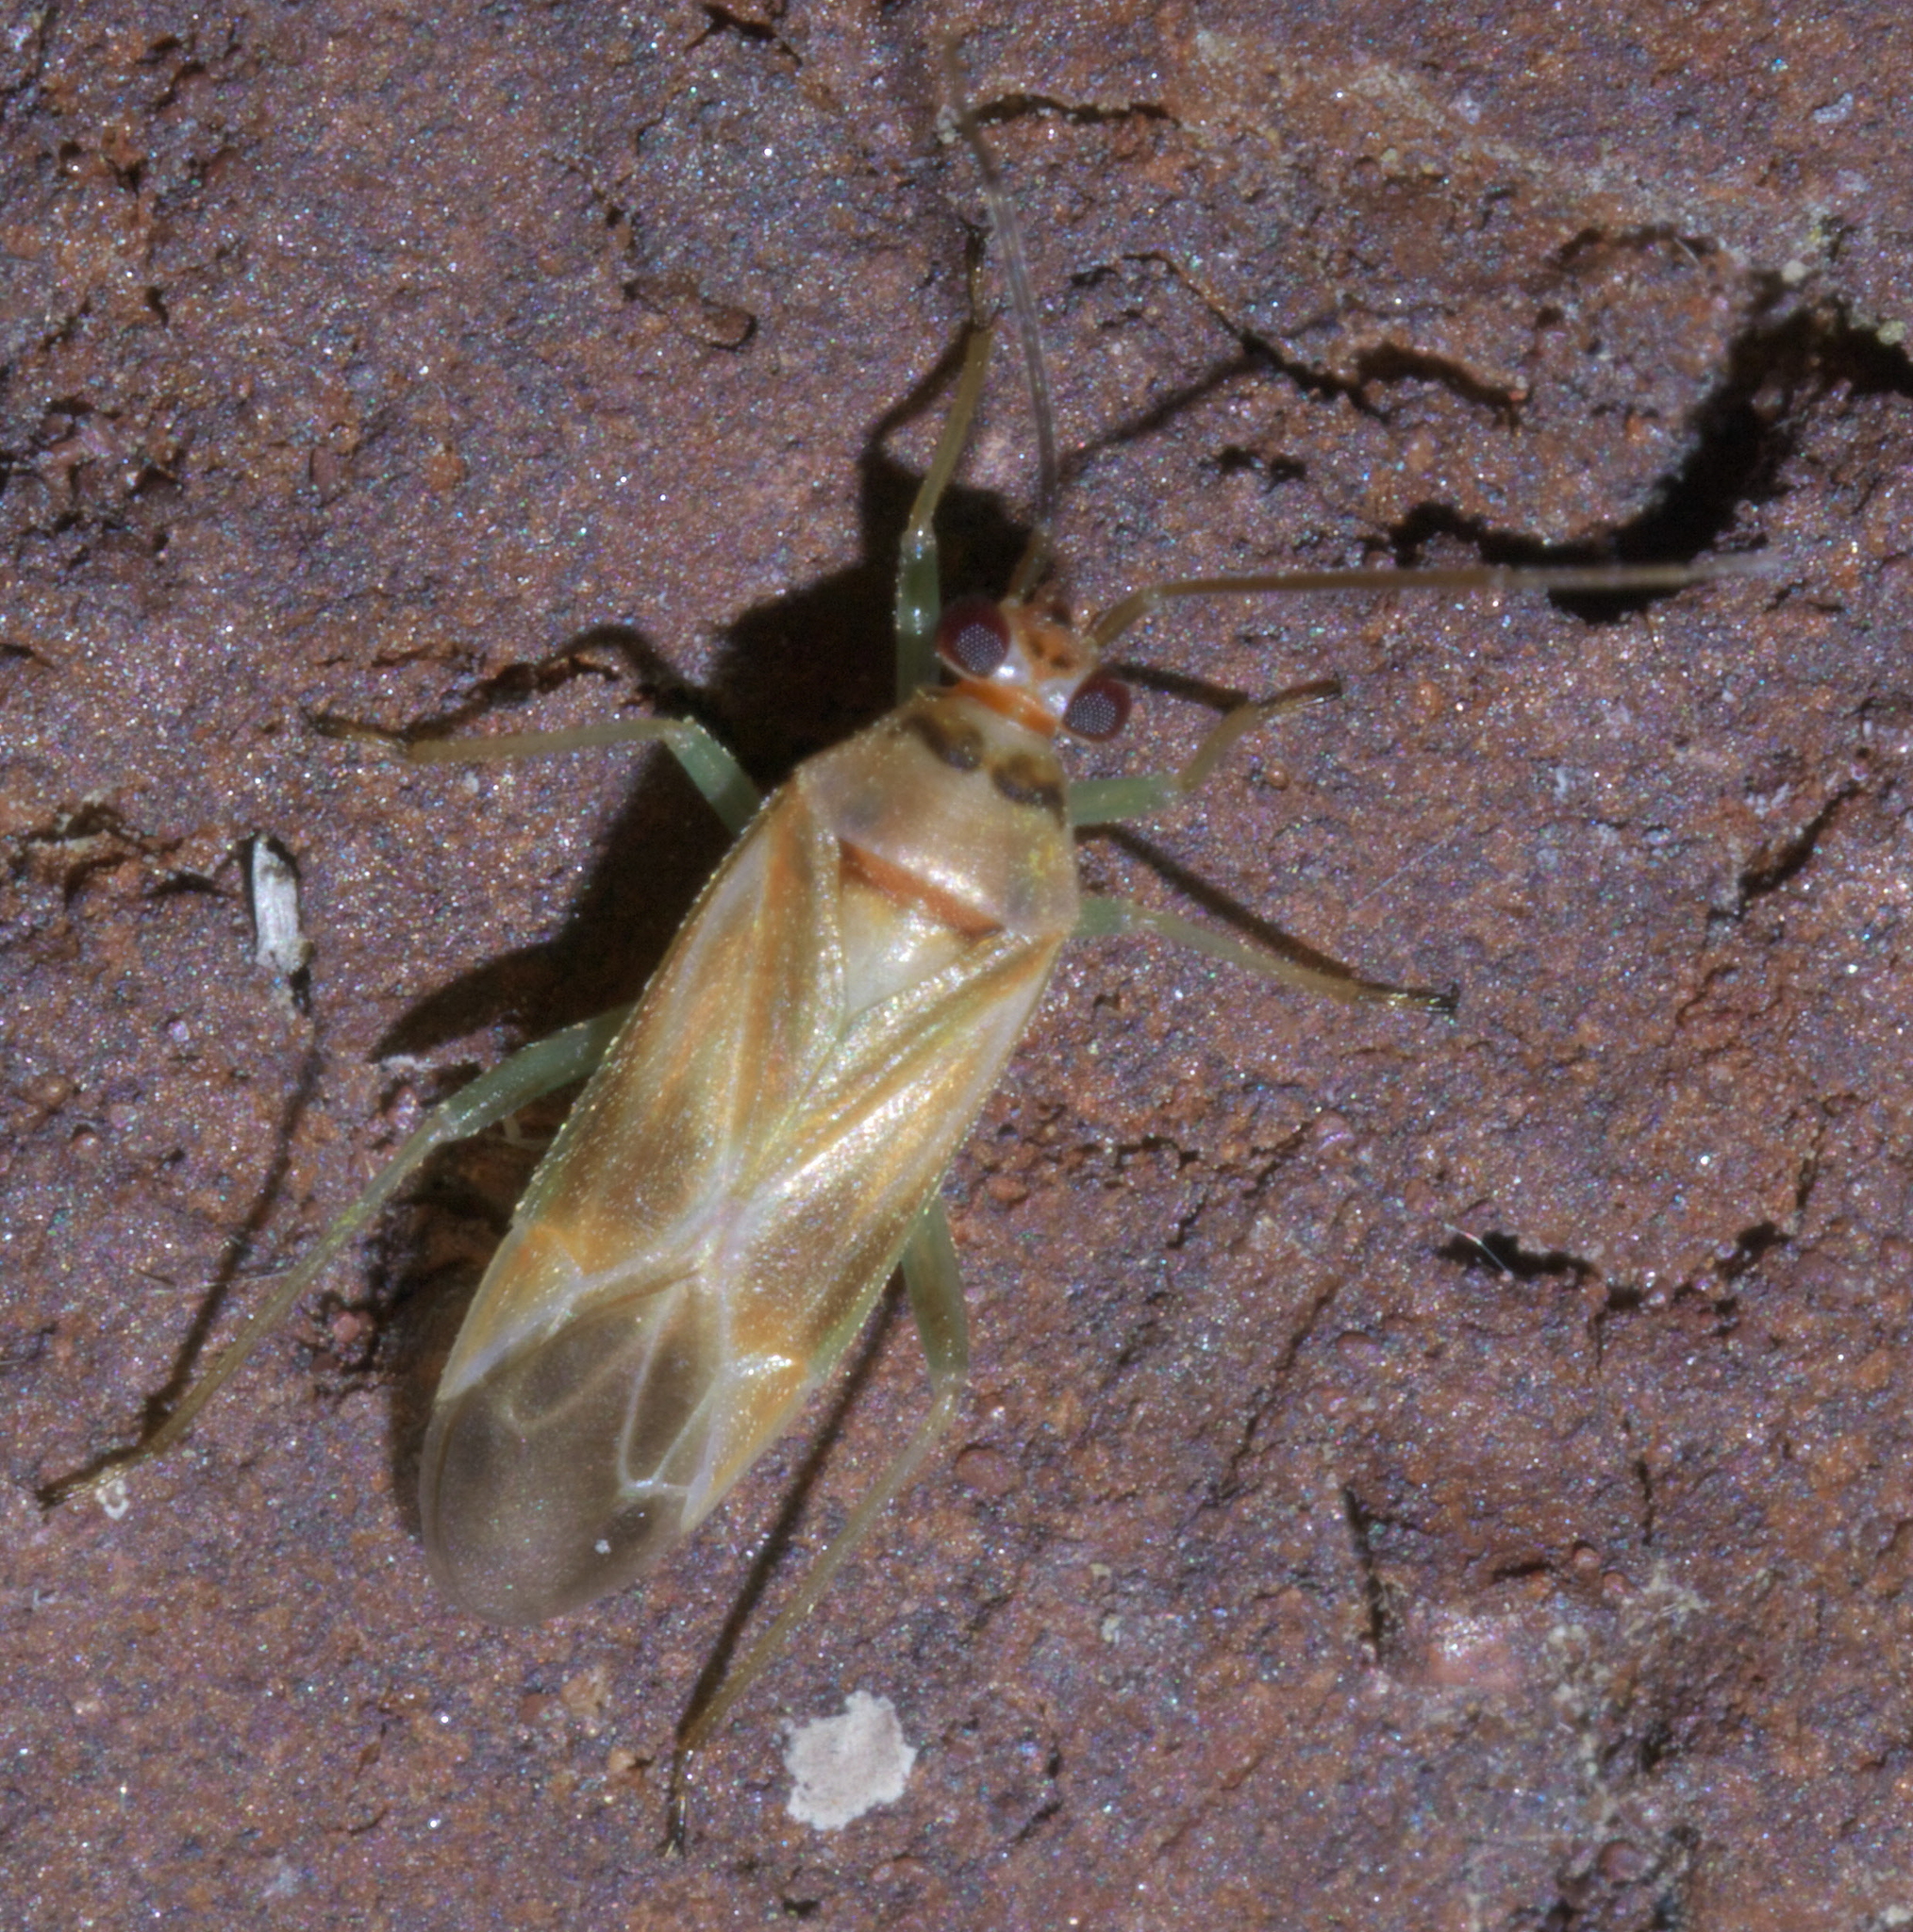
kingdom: Animalia
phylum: Arthropoda
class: Insecta
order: Hemiptera
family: Miridae
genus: Orthotylus
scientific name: Orthotylus ornatus
